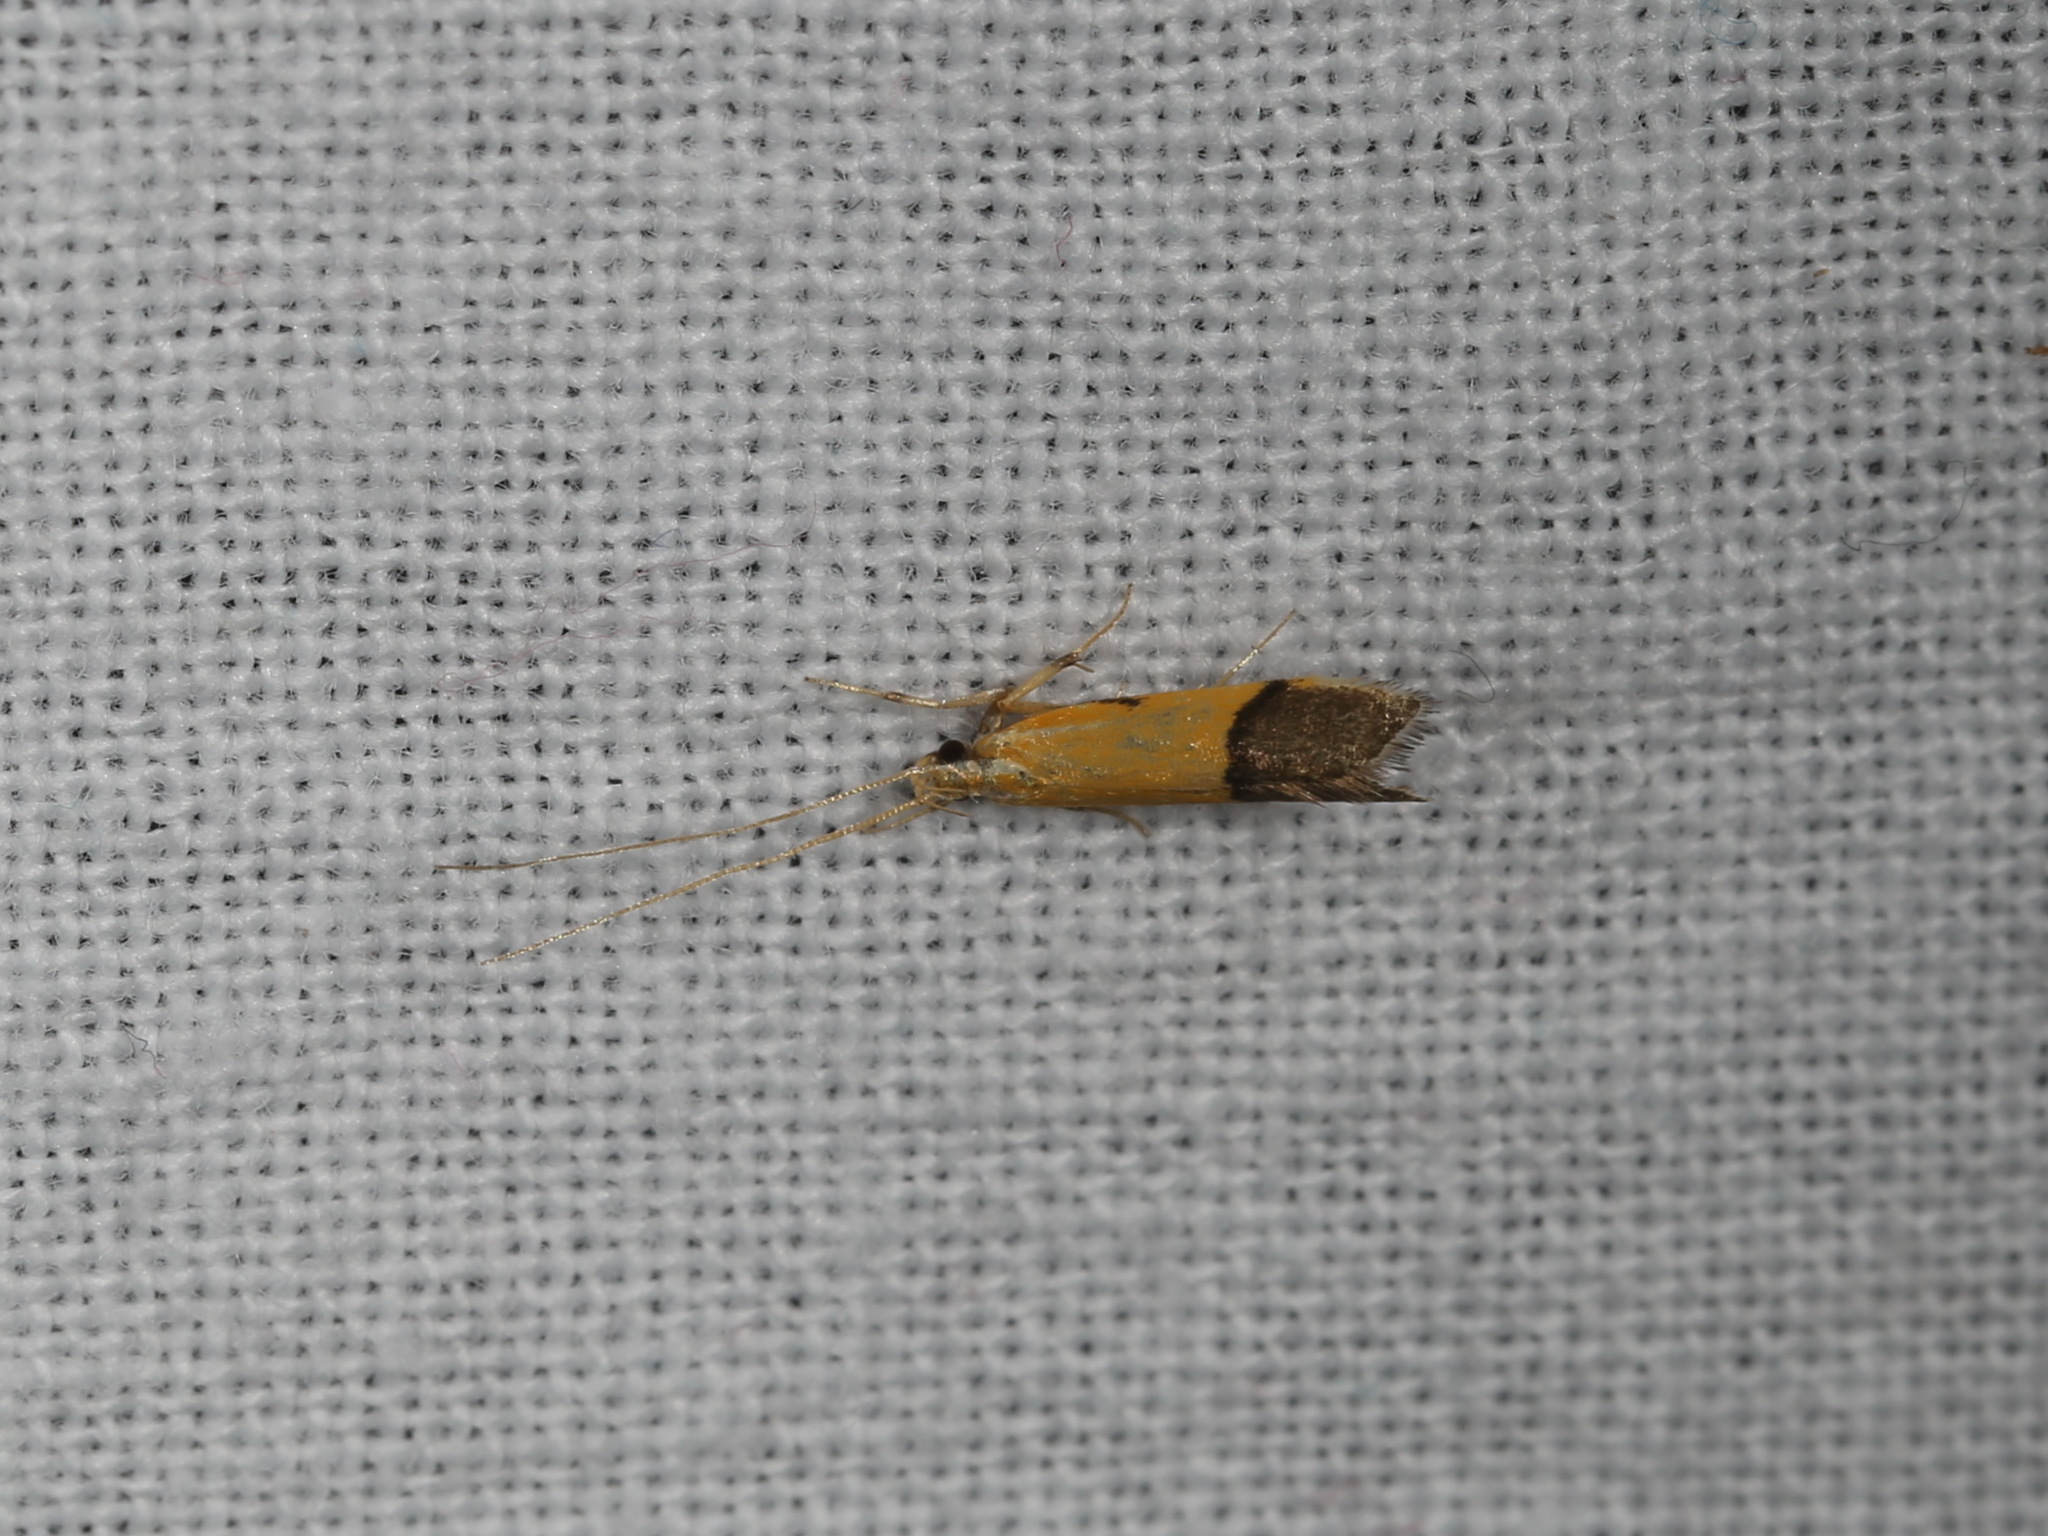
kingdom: Animalia
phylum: Arthropoda
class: Insecta
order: Lepidoptera
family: Lecithoceridae
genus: Crocanthes
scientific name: Crocanthes micradelpha
